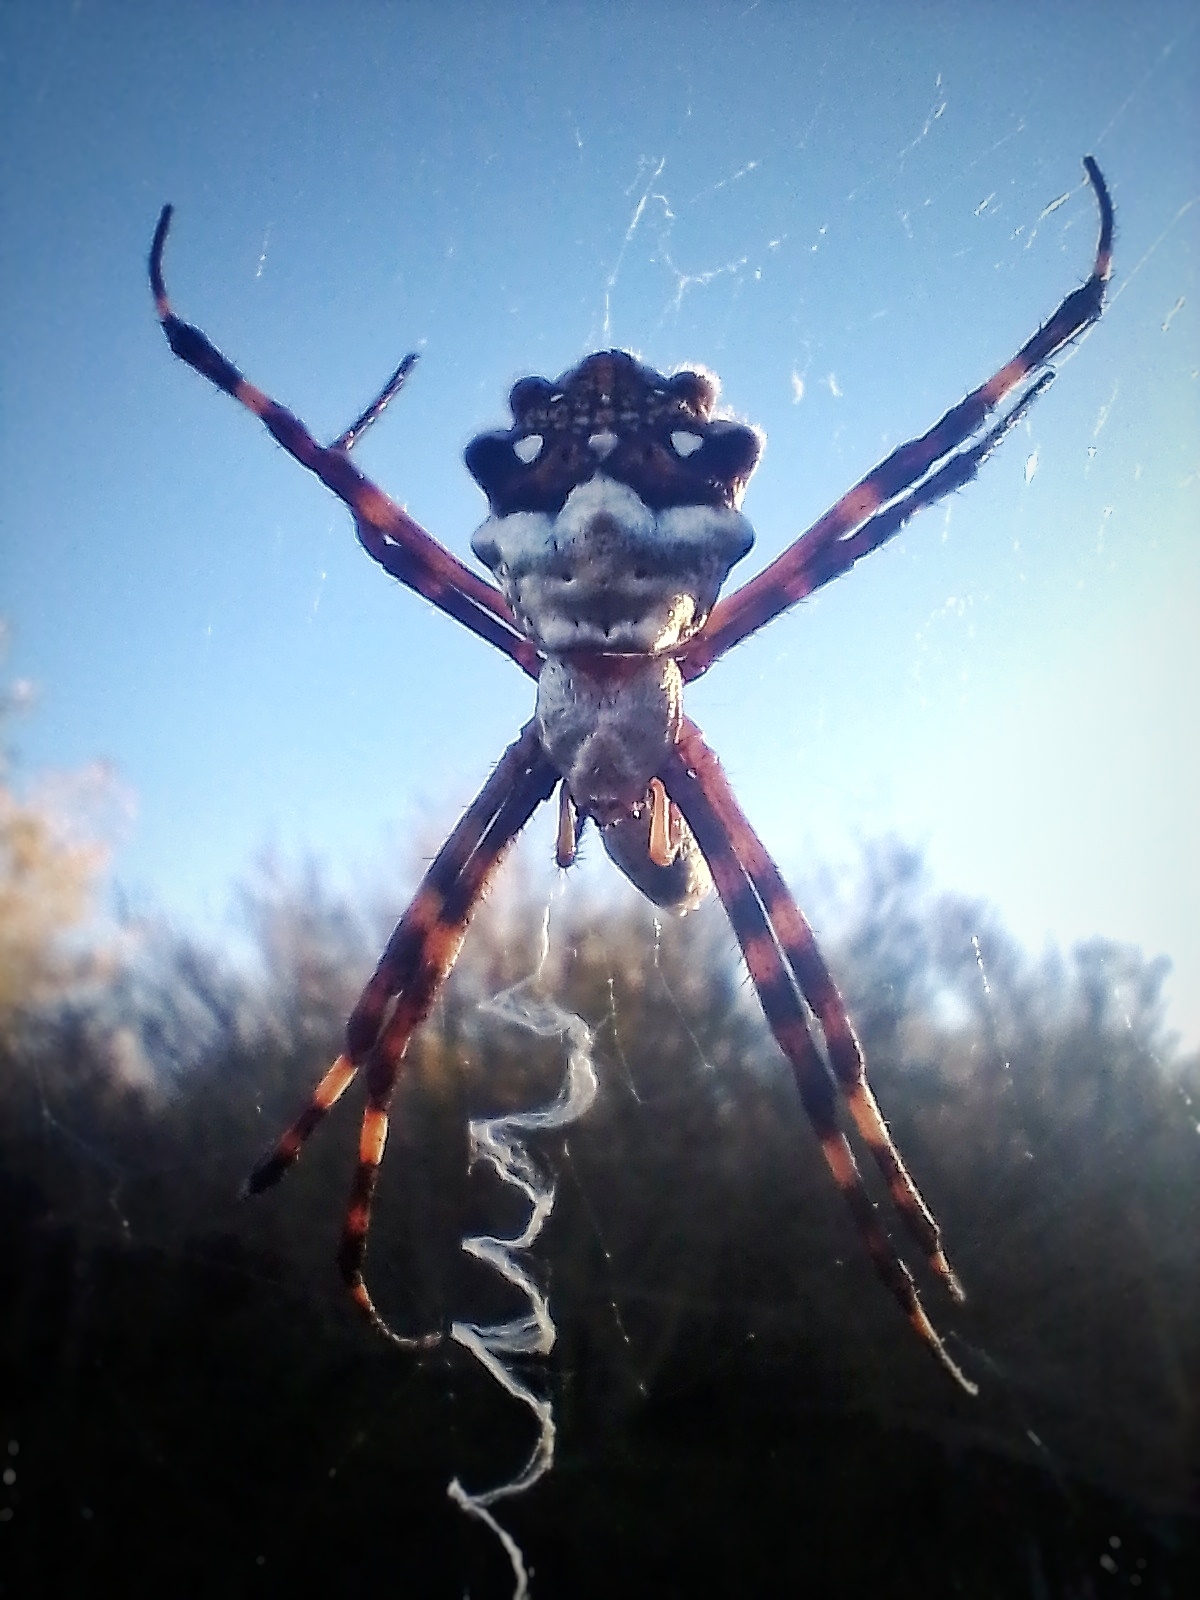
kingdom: Animalia
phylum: Arthropoda
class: Arachnida
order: Araneae
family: Araneidae
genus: Argiope
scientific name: Argiope argentata
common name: Orb weavers
